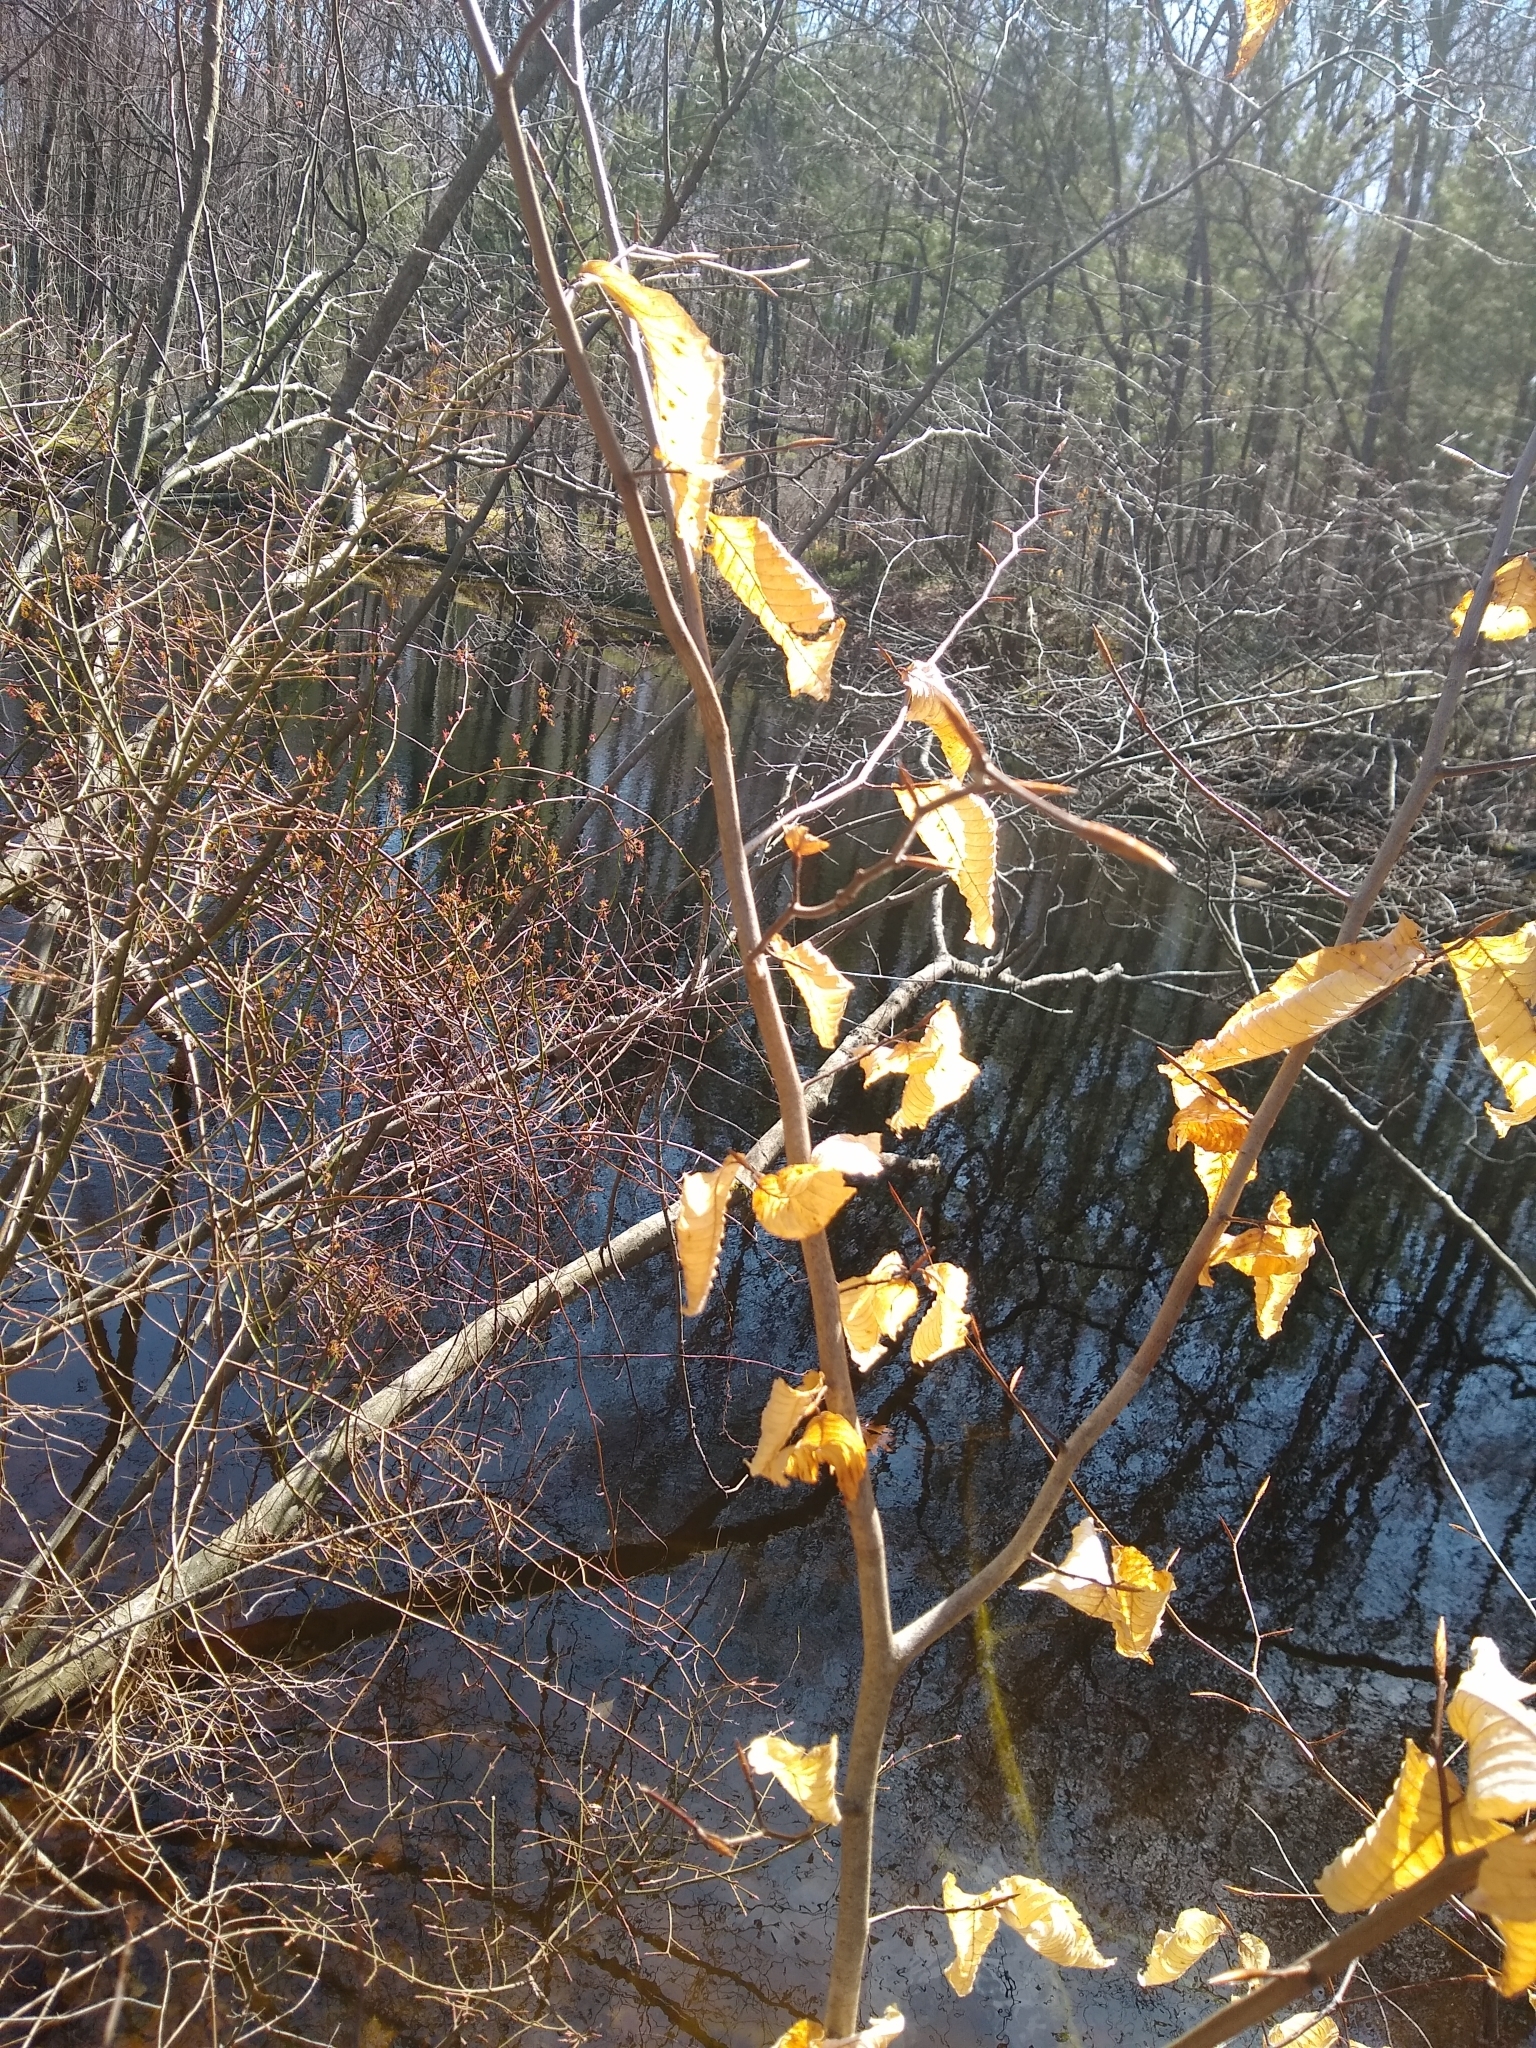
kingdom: Plantae
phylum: Tracheophyta
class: Magnoliopsida
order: Fagales
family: Fagaceae
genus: Fagus
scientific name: Fagus grandifolia
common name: American beech
